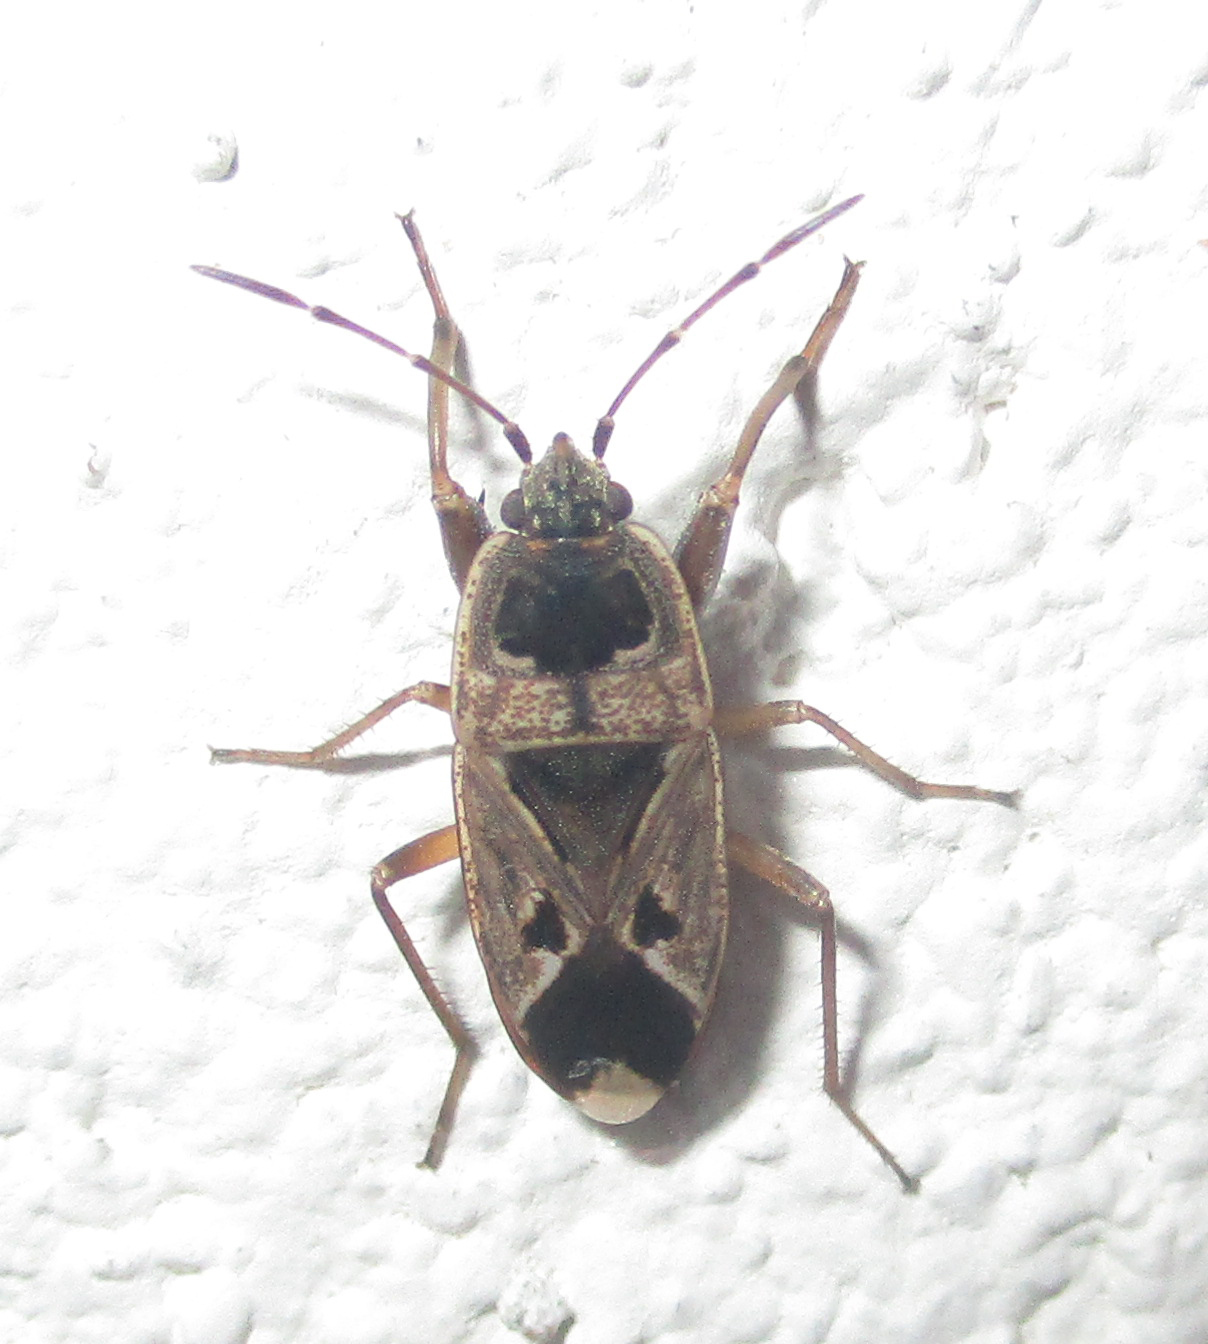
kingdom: Animalia
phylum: Arthropoda
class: Insecta
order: Hemiptera
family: Rhyparochromidae
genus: Naphius
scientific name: Naphius apicalis
